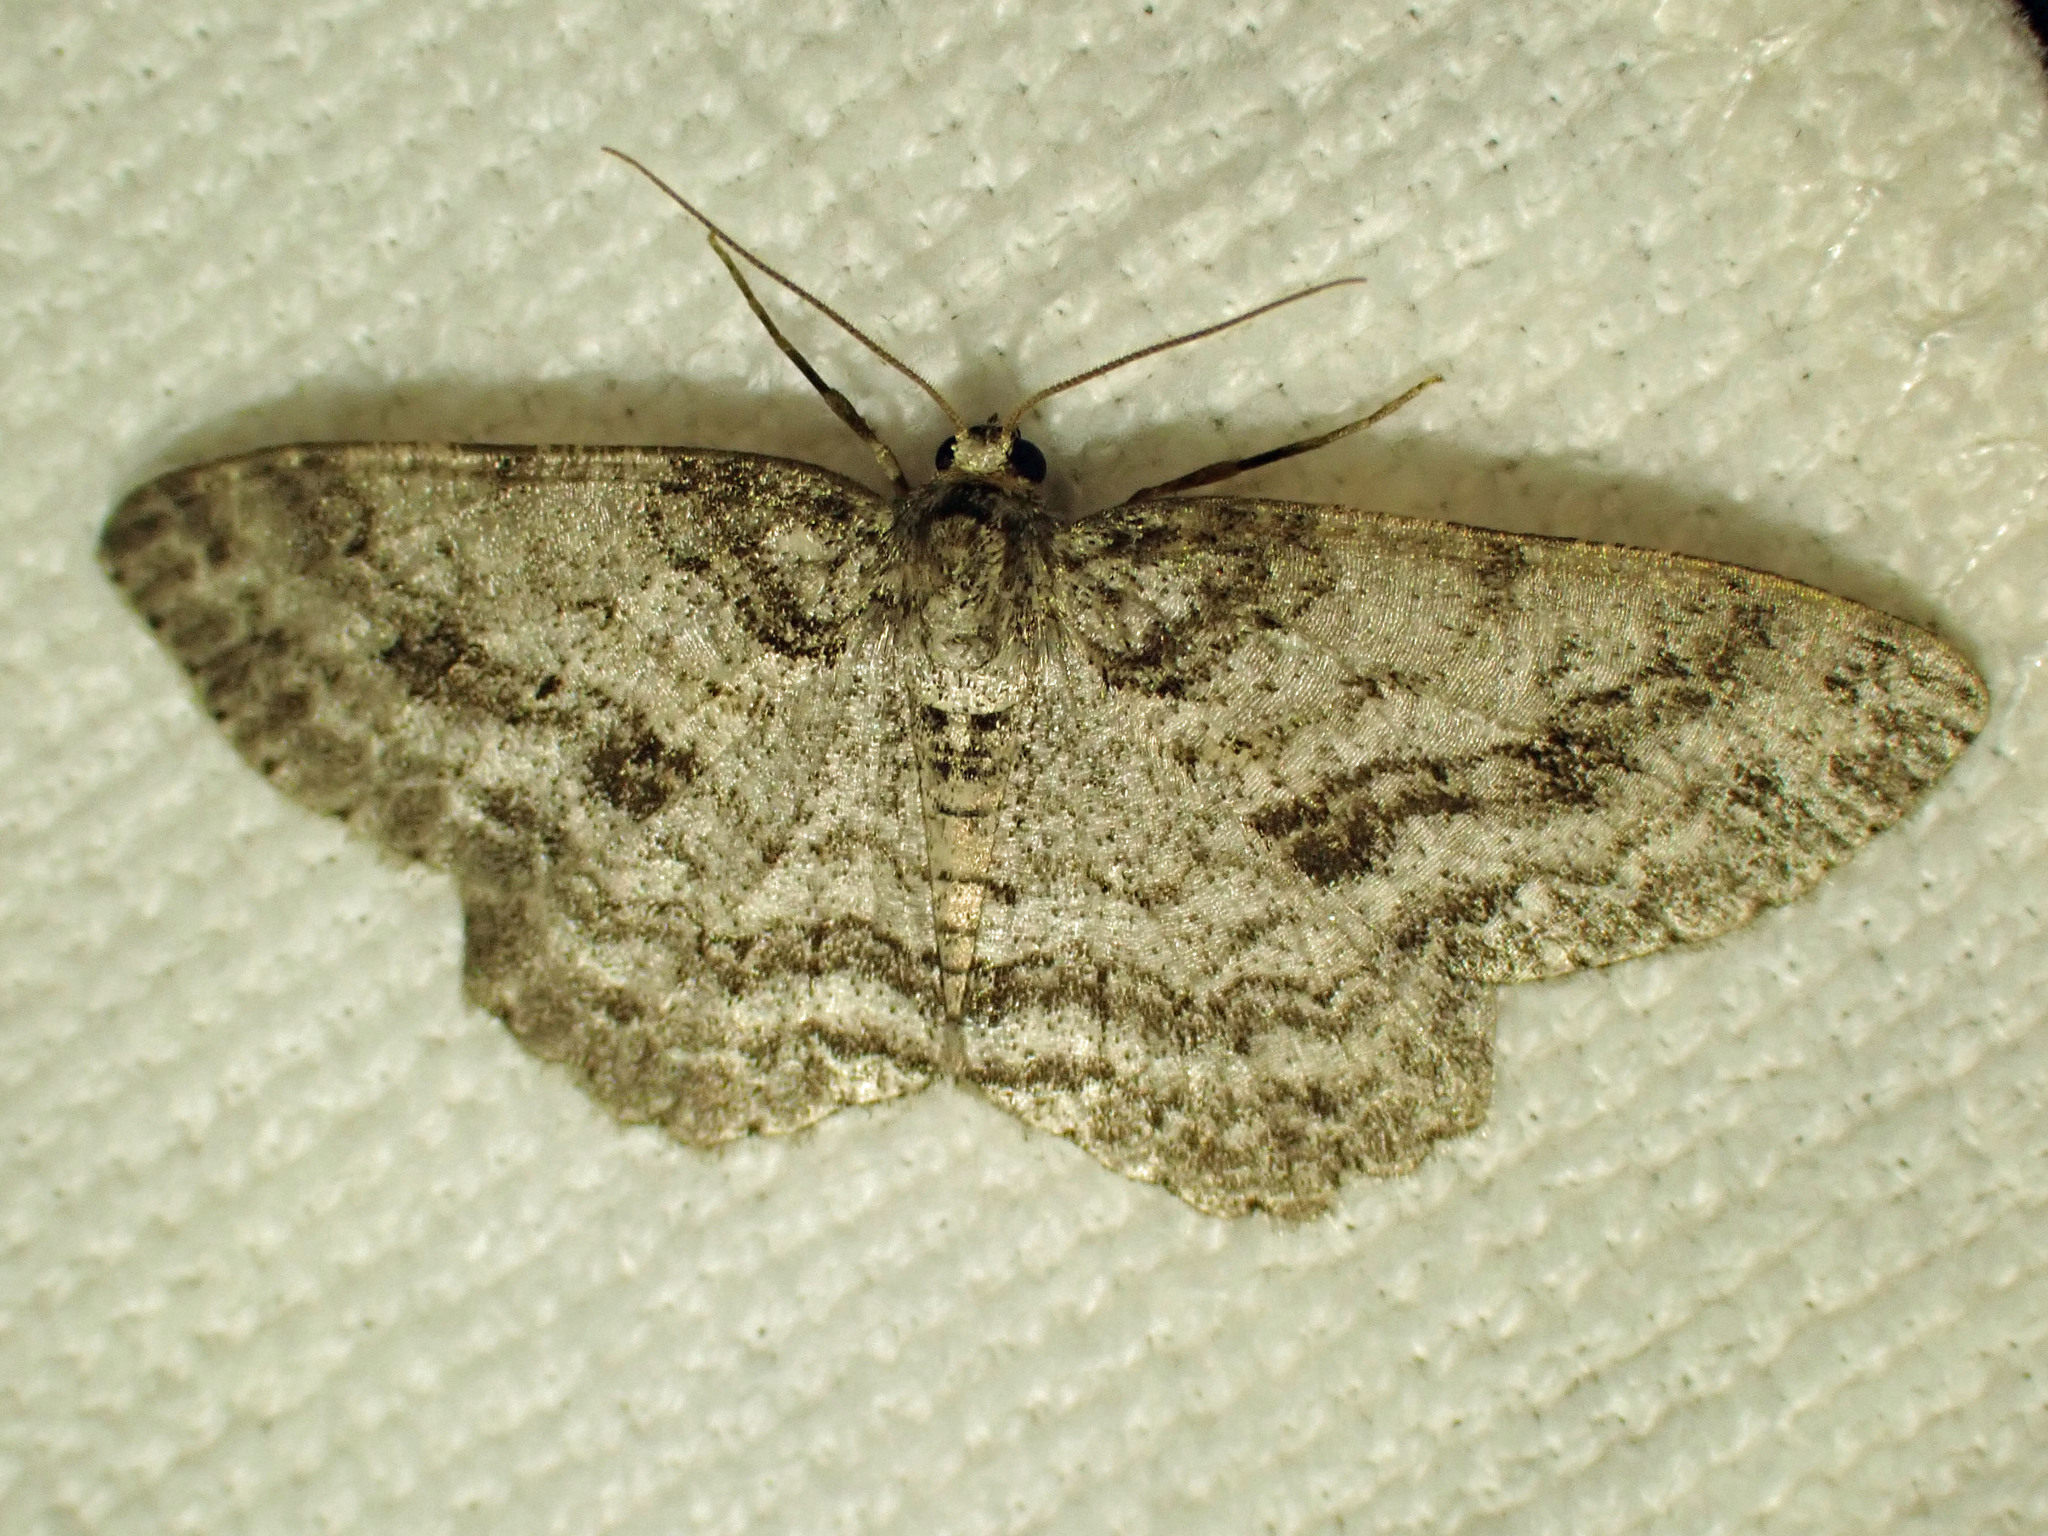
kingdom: Animalia
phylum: Arthropoda
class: Insecta
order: Lepidoptera
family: Geometridae
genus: Ectropis
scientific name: Ectropis crepuscularia
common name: Engrailed
